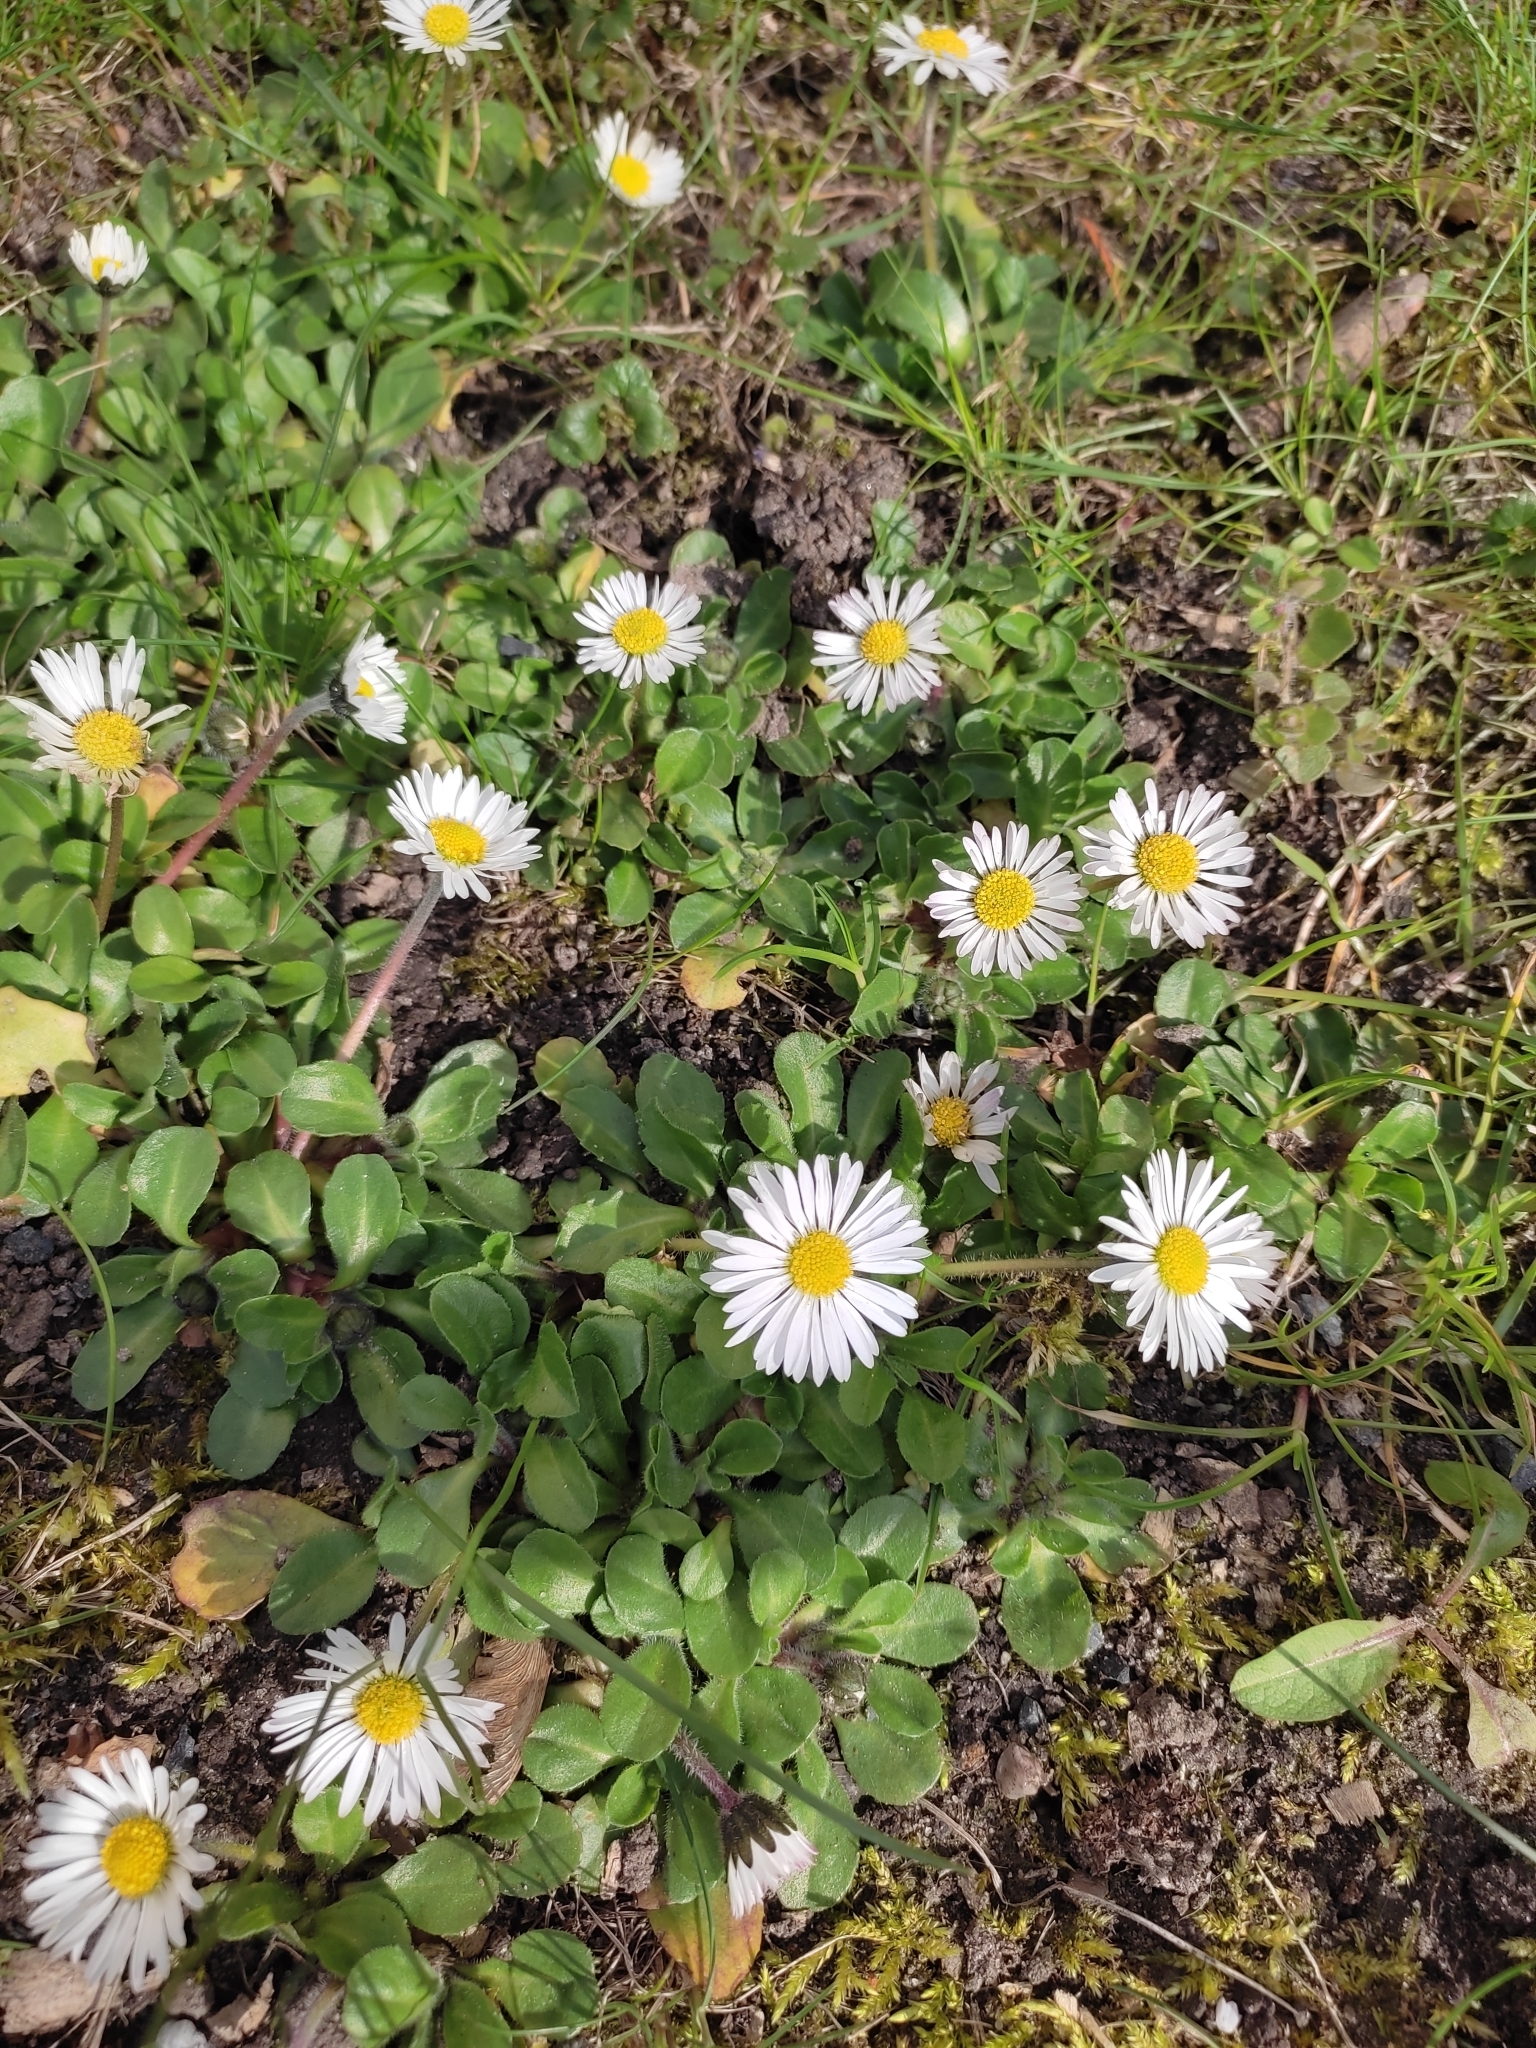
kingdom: Plantae
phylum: Tracheophyta
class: Magnoliopsida
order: Asterales
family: Asteraceae
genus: Bellis
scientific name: Bellis perennis
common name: Lawndaisy
